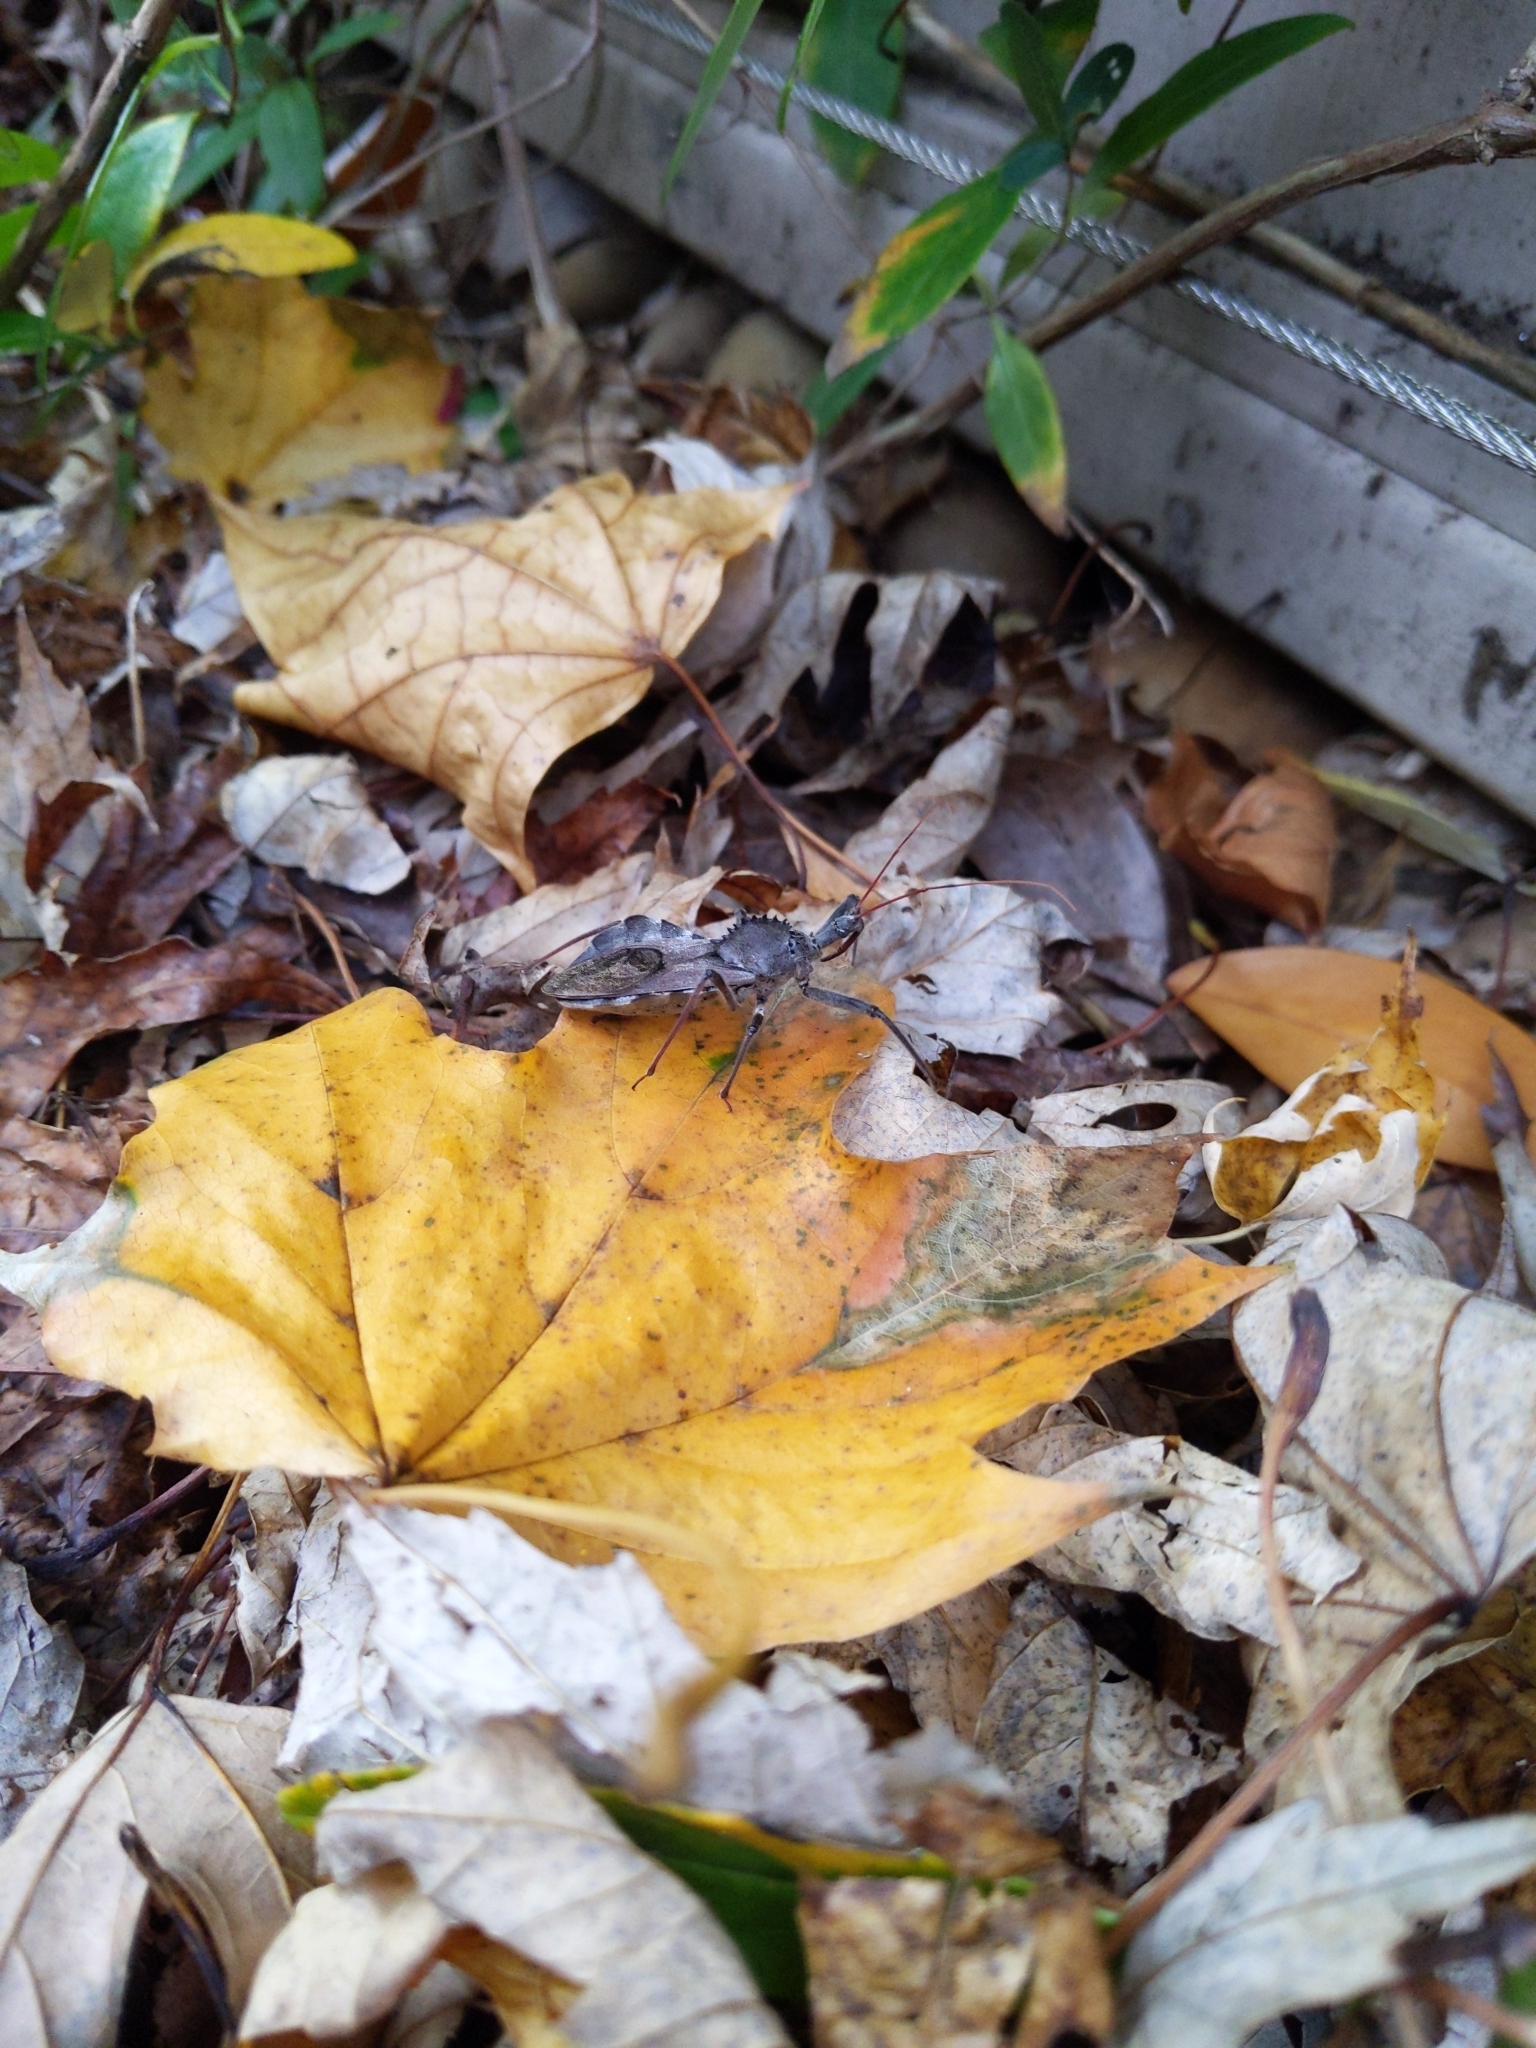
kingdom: Animalia
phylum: Arthropoda
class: Insecta
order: Hemiptera
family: Reduviidae
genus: Arilus
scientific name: Arilus cristatus
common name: North american wheel bug
